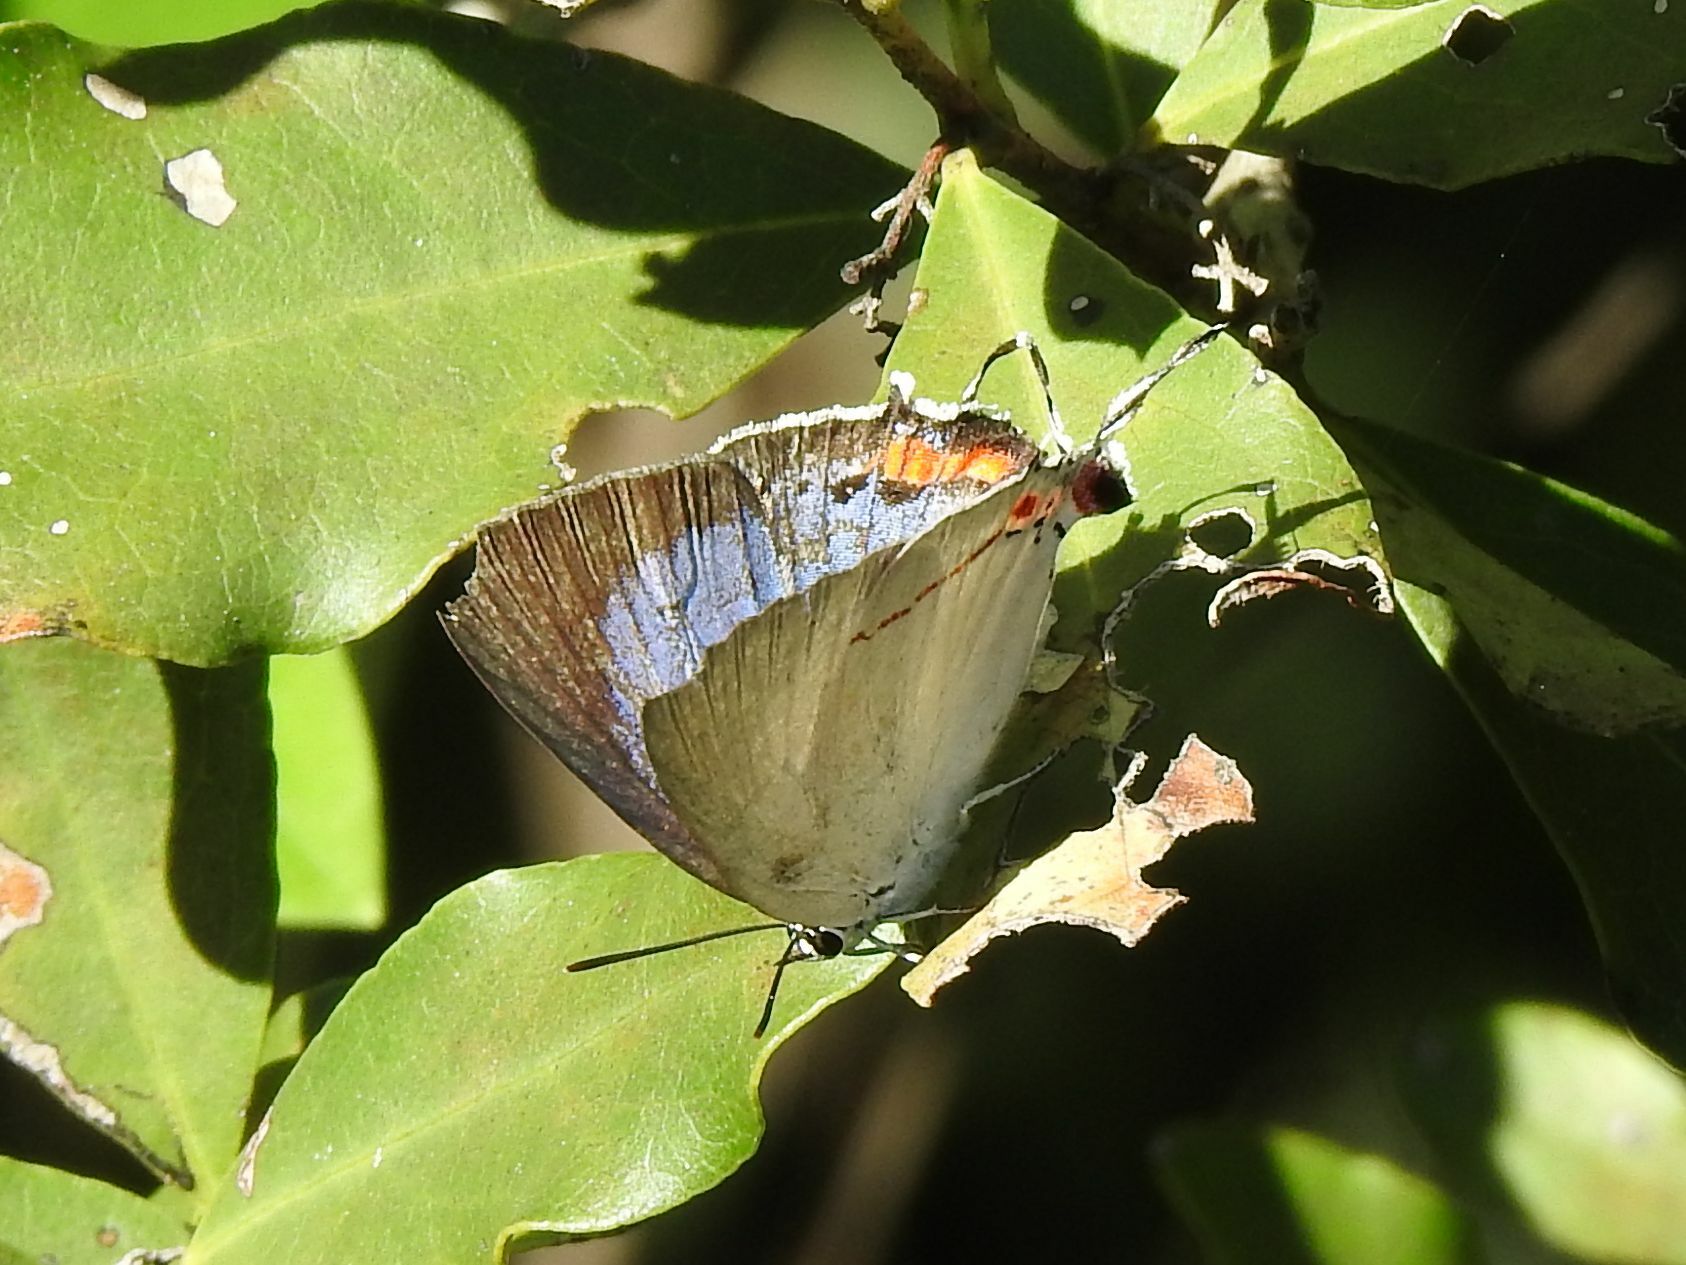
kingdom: Animalia
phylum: Arthropoda
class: Insecta
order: Lepidoptera
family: Lycaenidae
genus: Argiolaus
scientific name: Argiolaus silas
